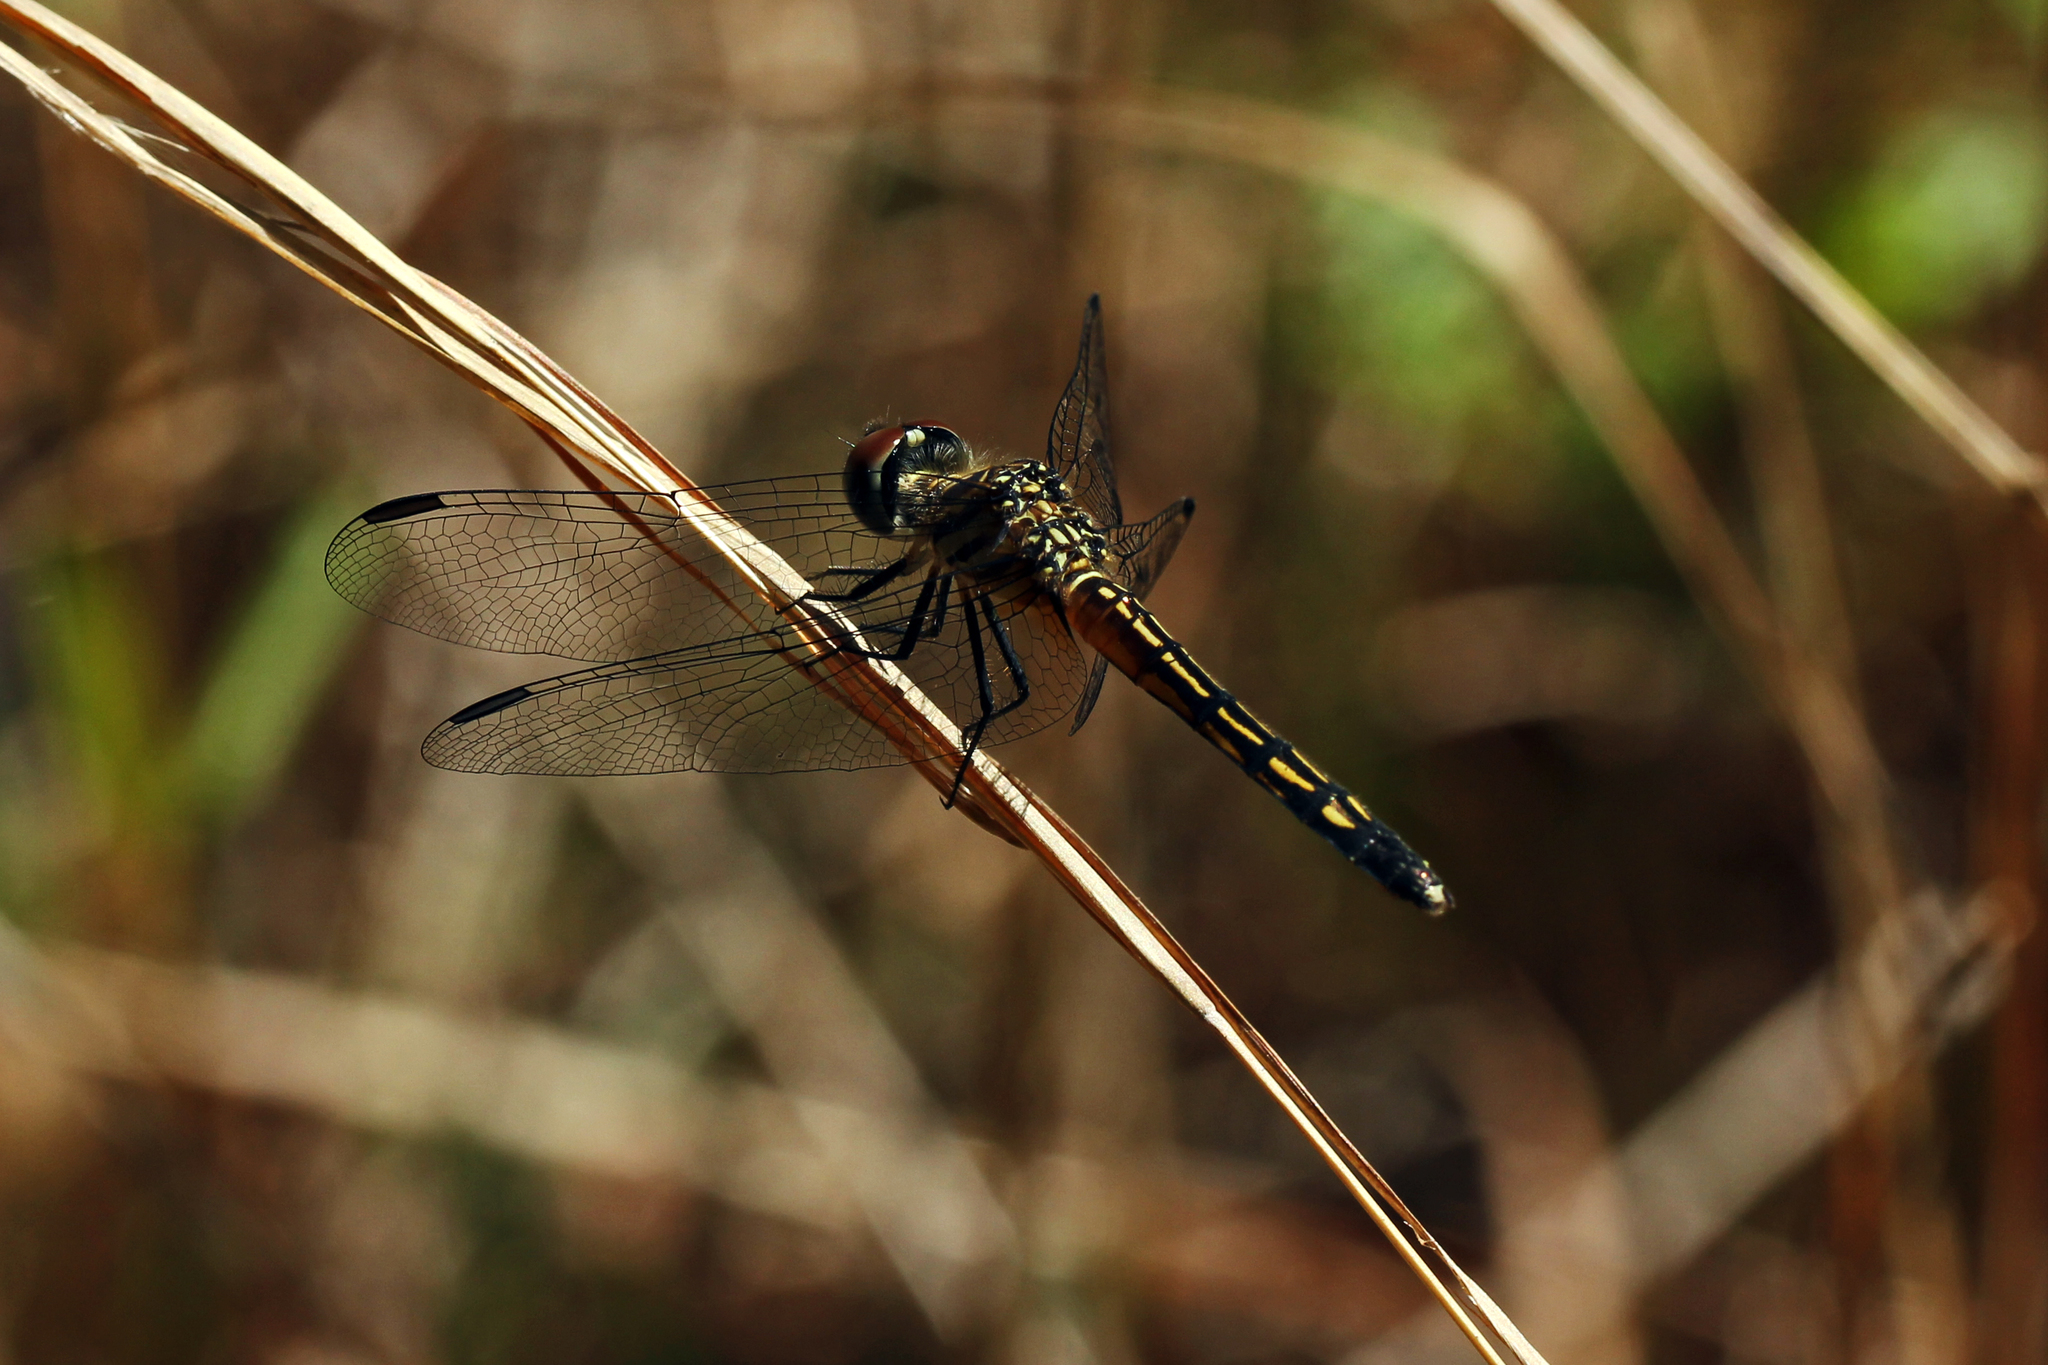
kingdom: Animalia
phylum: Arthropoda
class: Insecta
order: Odonata
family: Libellulidae
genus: Pachydiplax
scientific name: Pachydiplax longipennis
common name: Blue dasher
